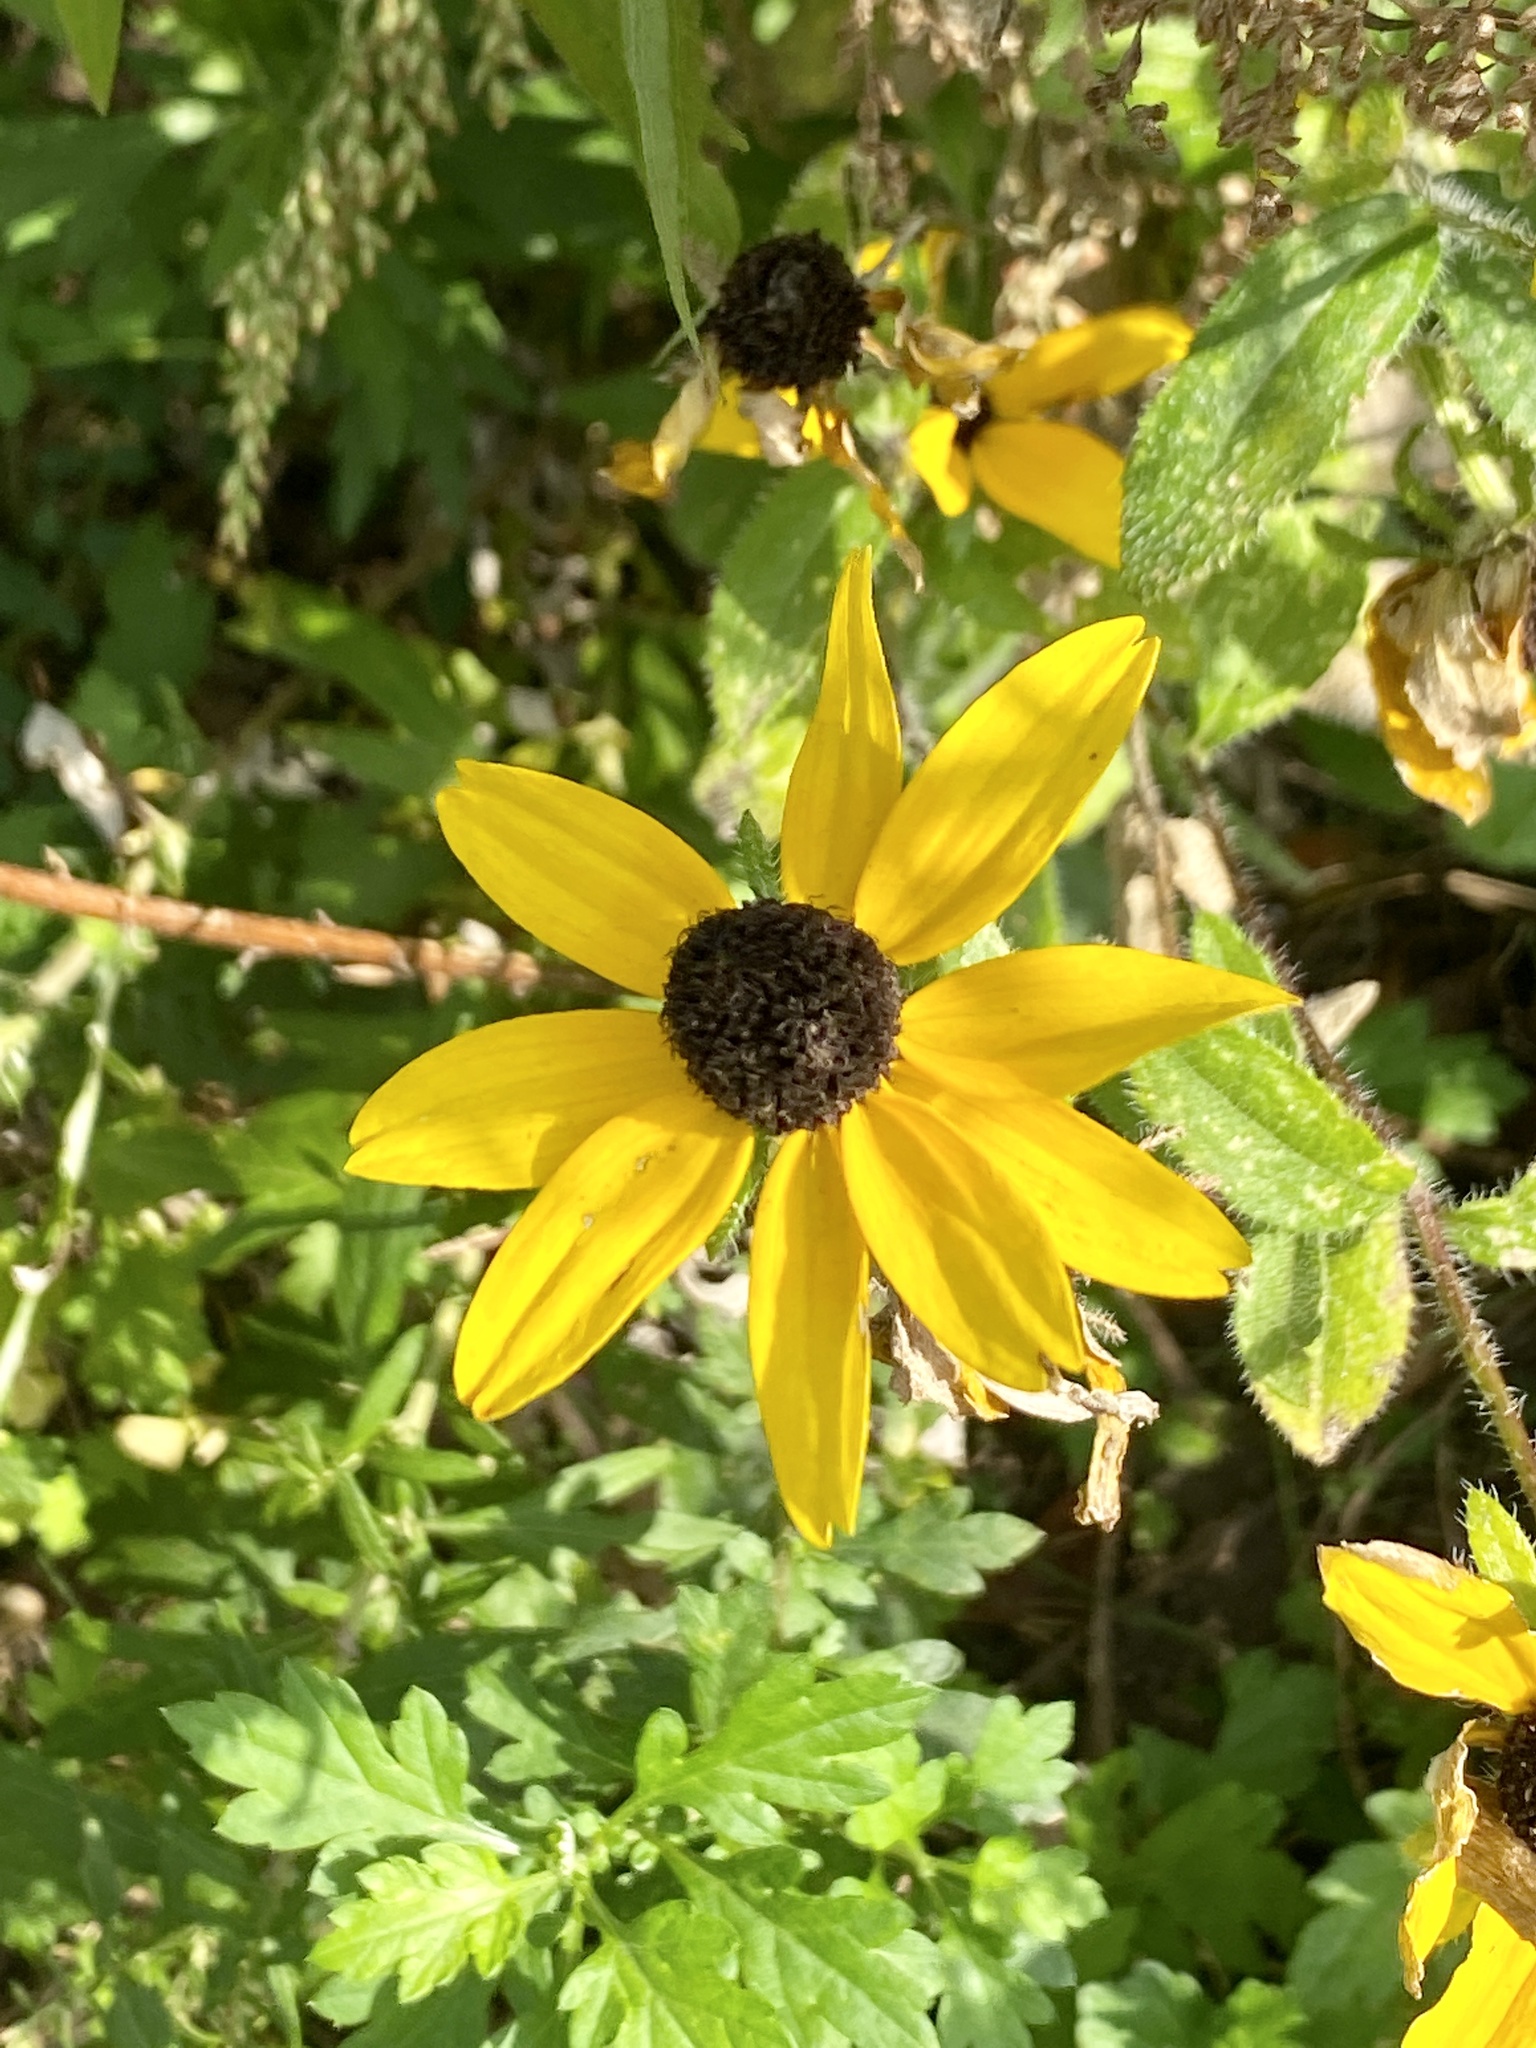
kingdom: Plantae
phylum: Tracheophyta
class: Magnoliopsida
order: Asterales
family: Asteraceae
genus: Rudbeckia
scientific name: Rudbeckia hirta
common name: Black-eyed-susan
